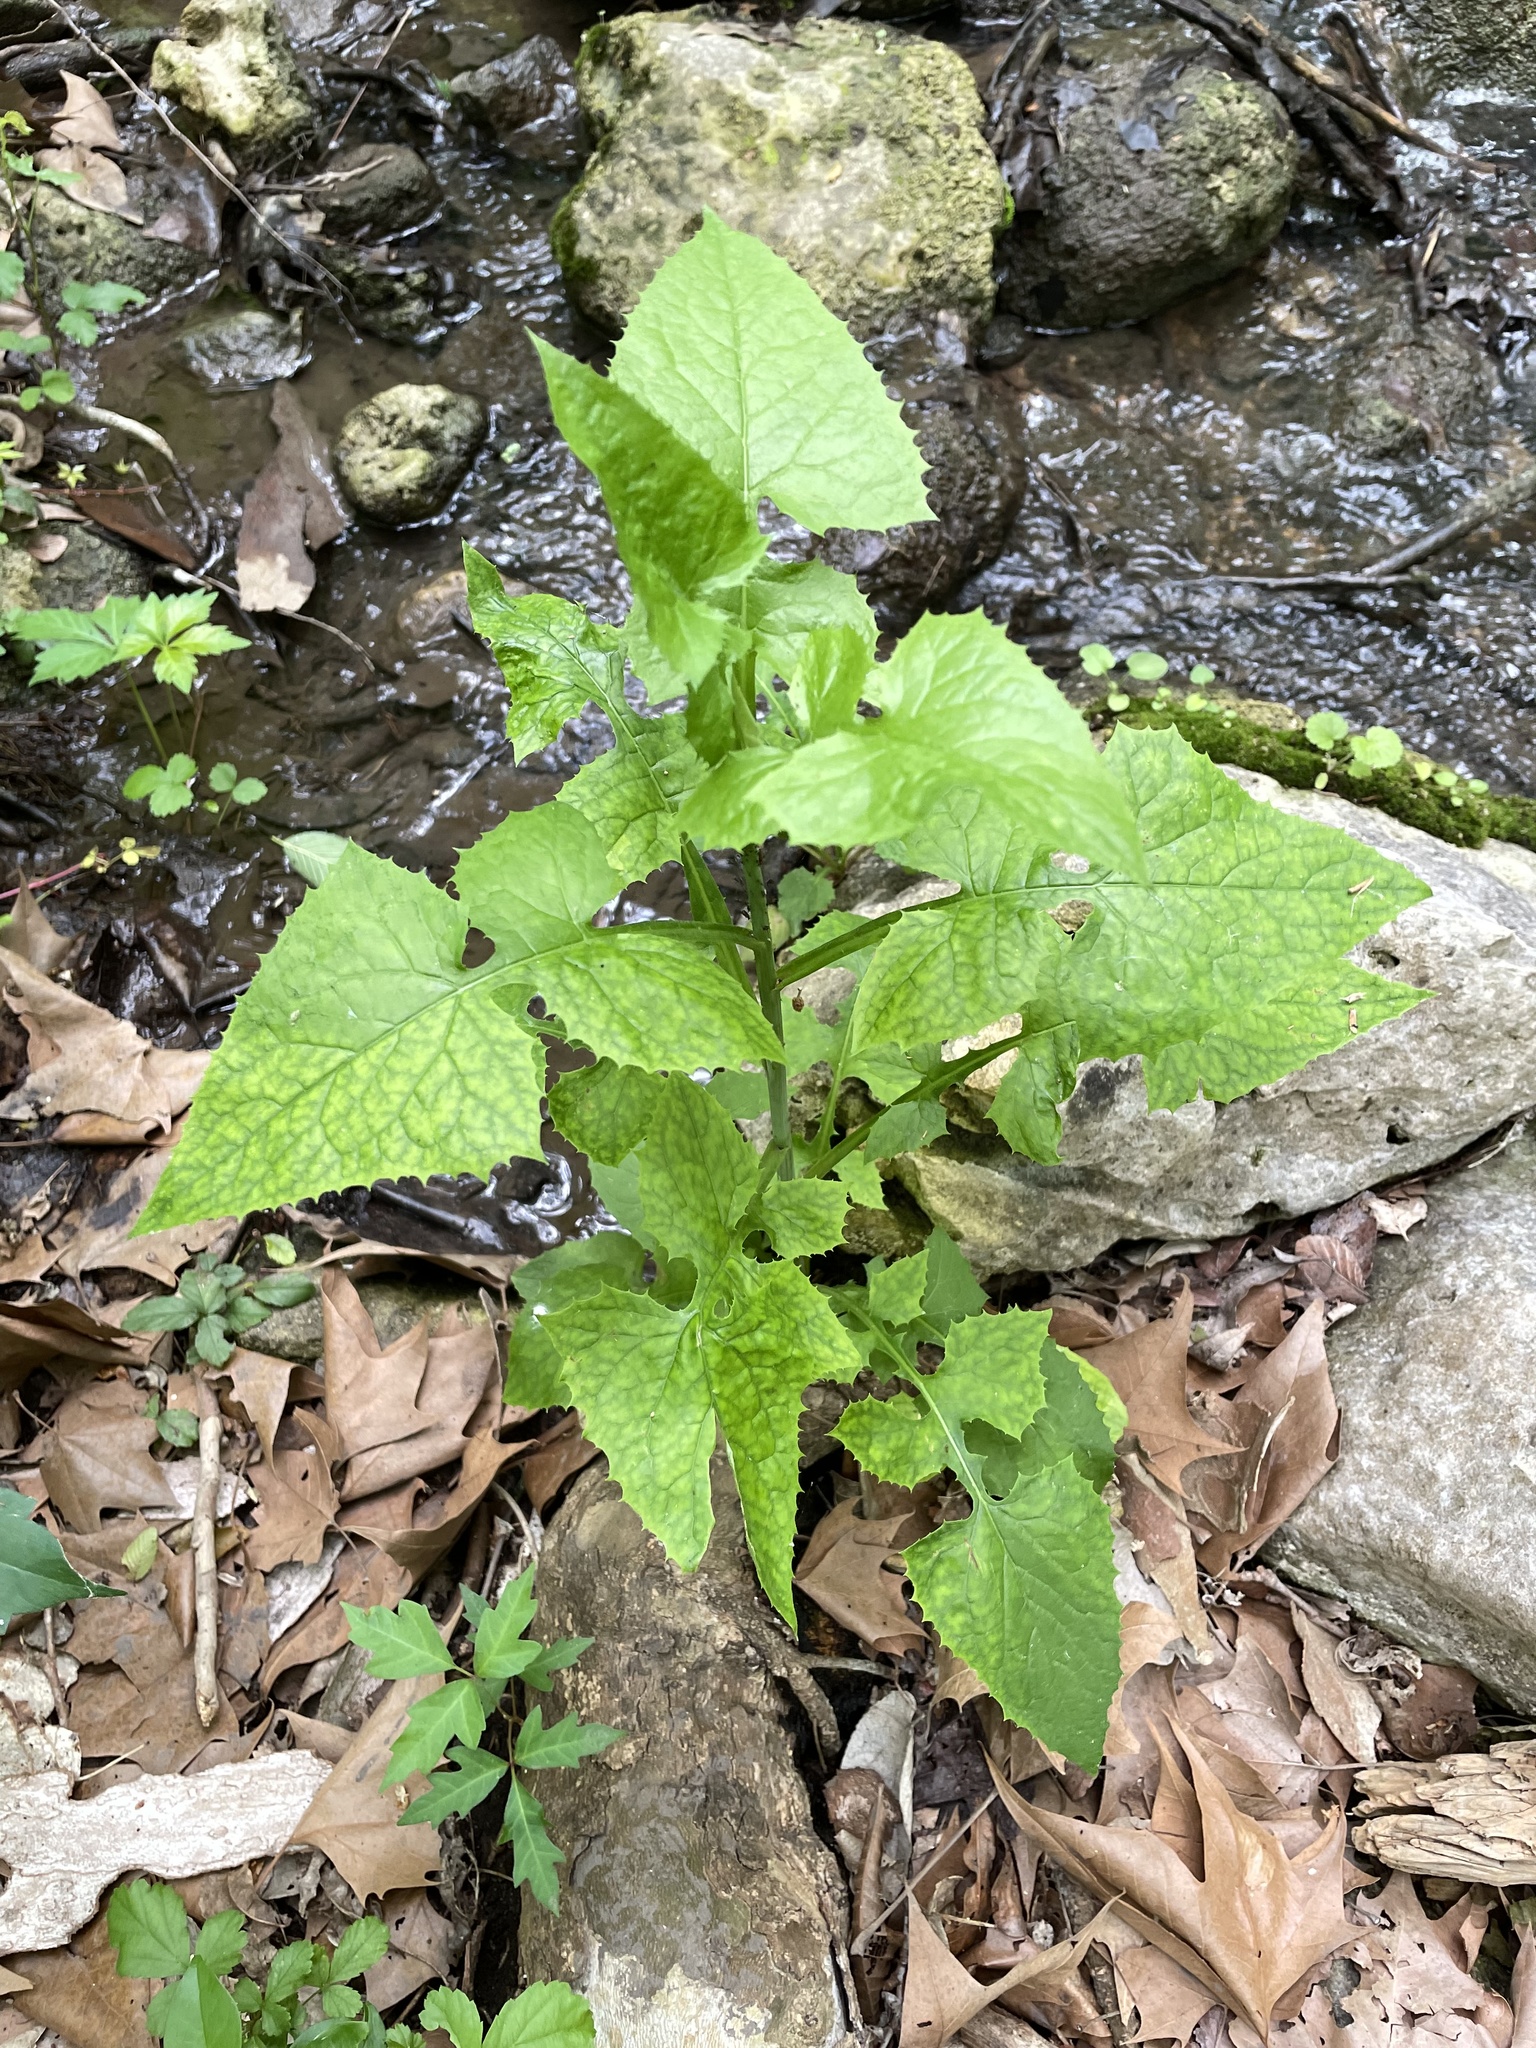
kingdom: Plantae
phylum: Tracheophyta
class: Magnoliopsida
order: Asterales
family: Asteraceae
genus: Lactuca
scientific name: Lactuca floridana
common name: Woodland lettuce
